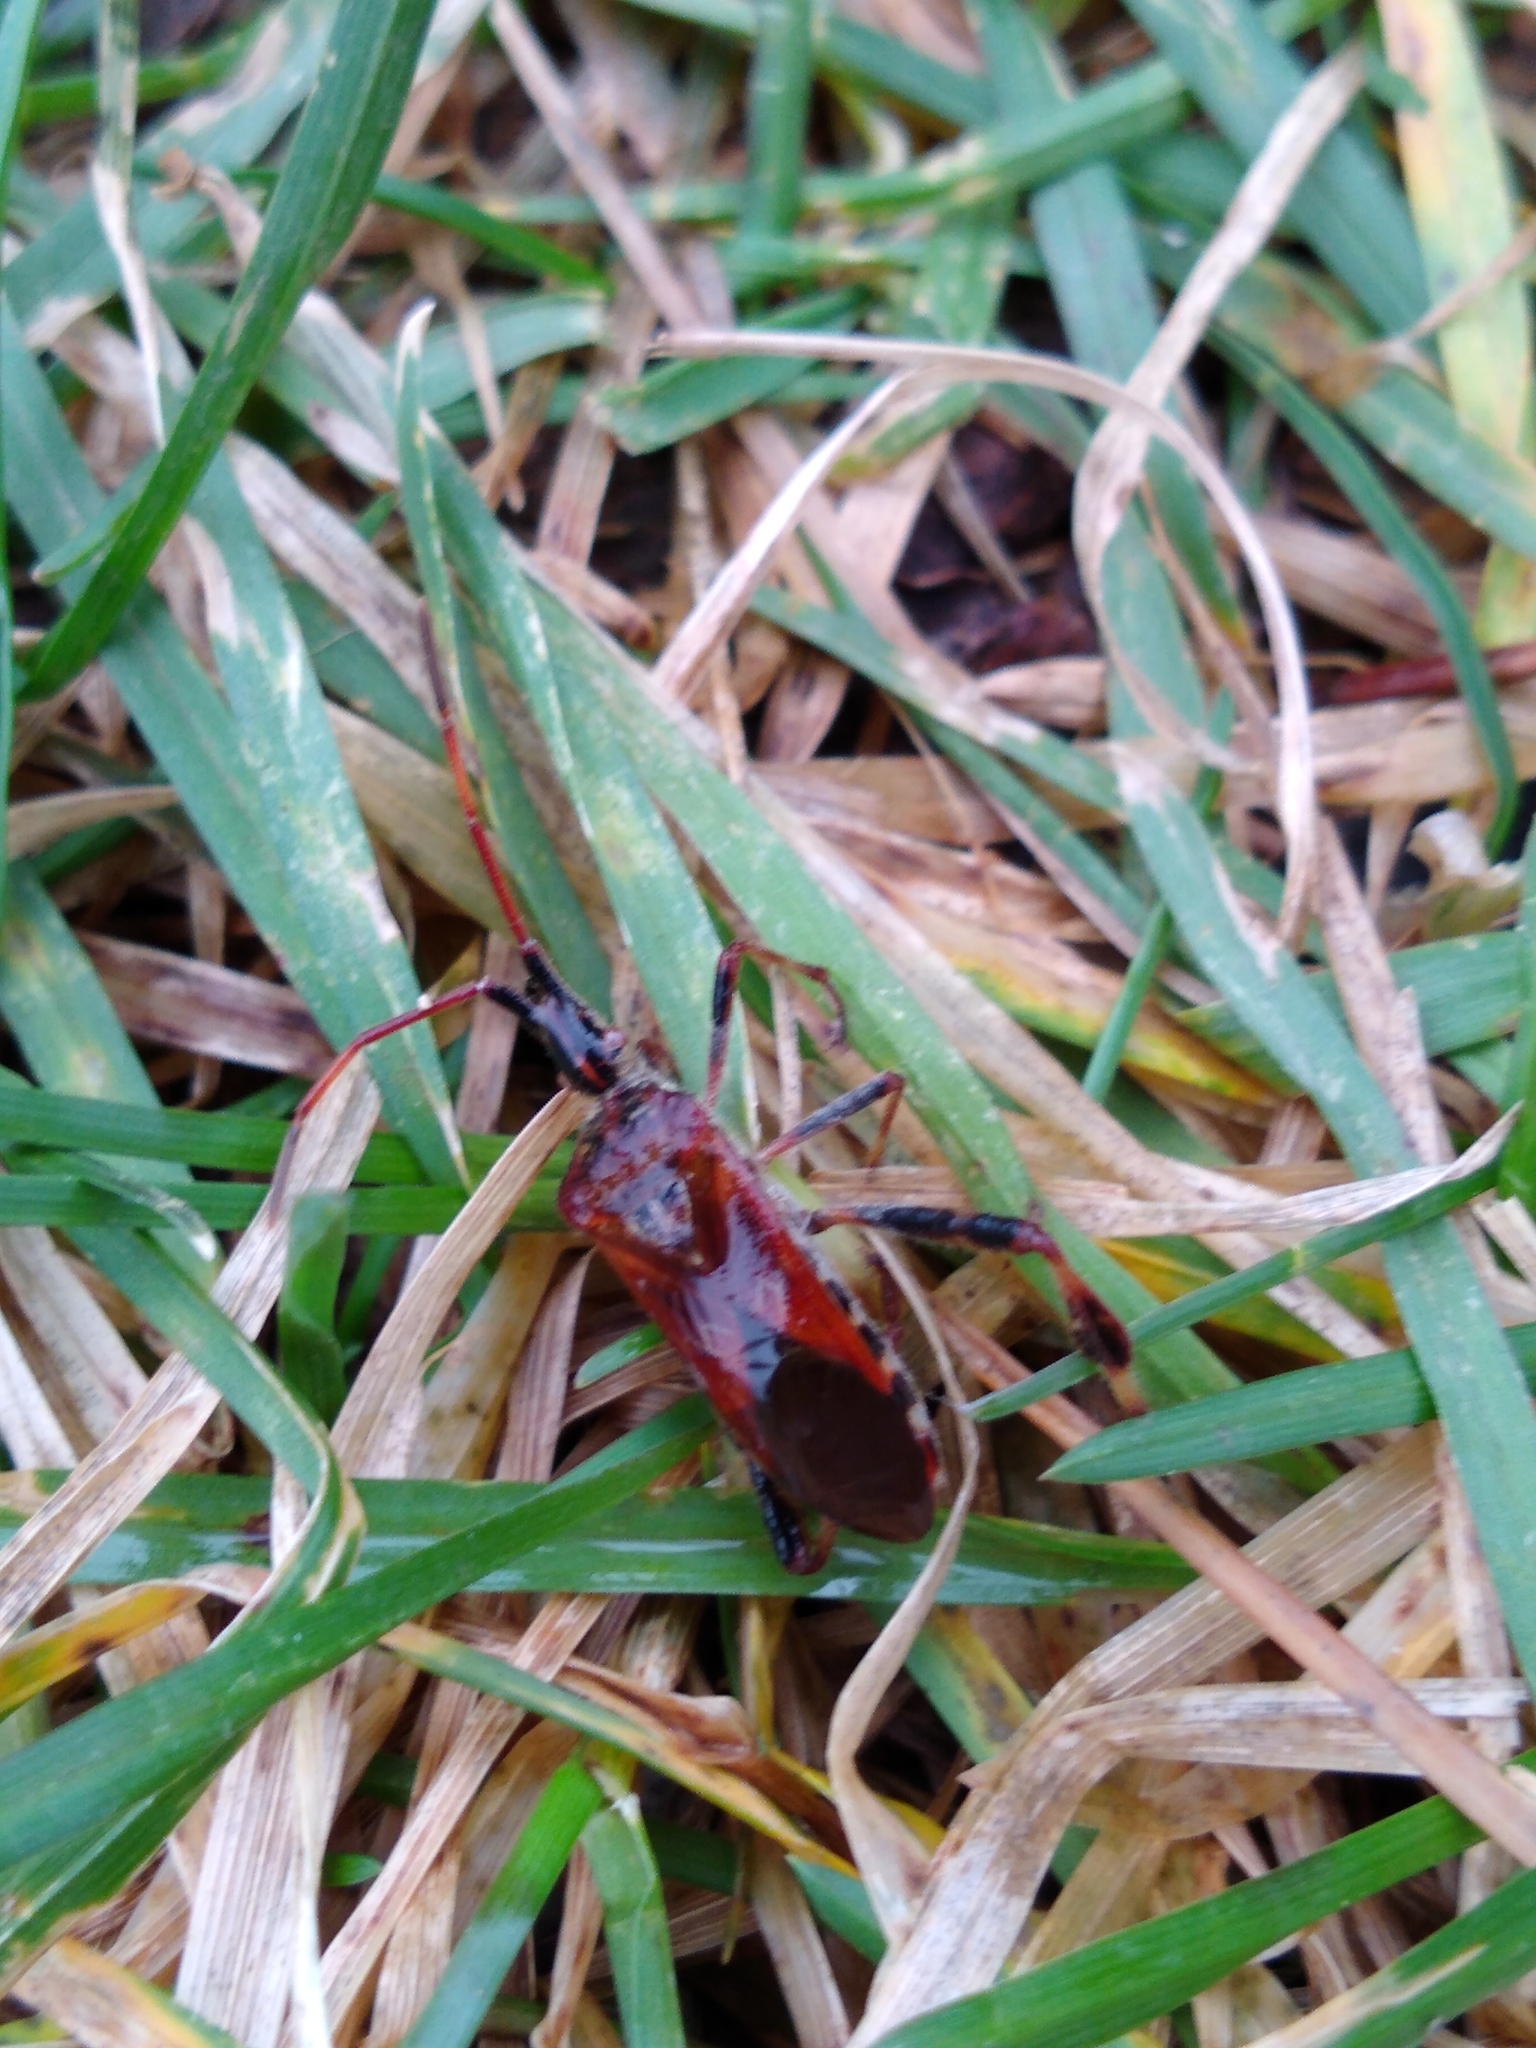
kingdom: Animalia
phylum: Arthropoda
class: Insecta
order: Hemiptera
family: Coreidae
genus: Leptoglossus
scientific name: Leptoglossus occidentalis
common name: Western conifer-seed bug
